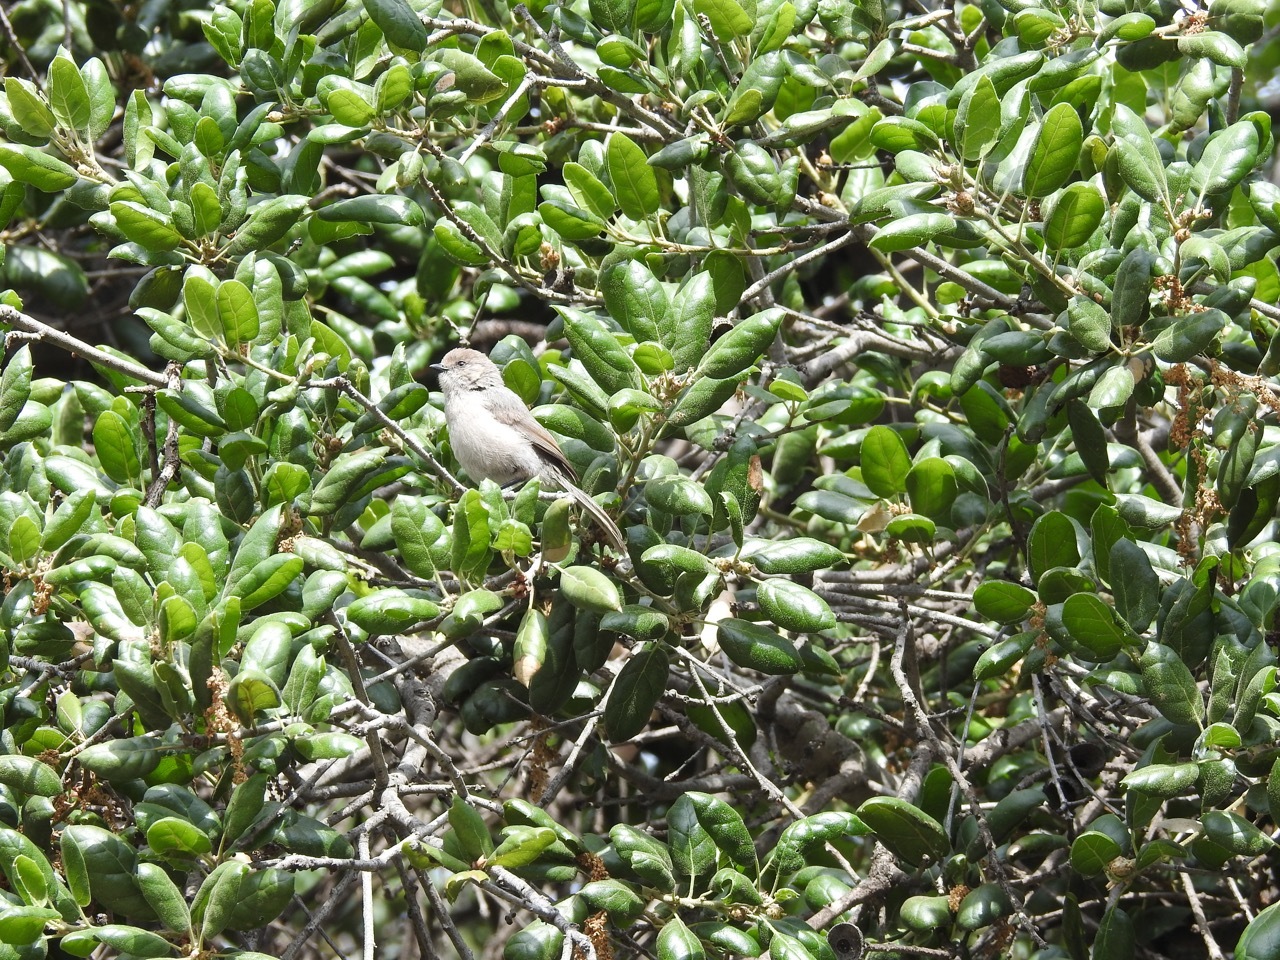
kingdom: Animalia
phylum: Chordata
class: Aves
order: Passeriformes
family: Aegithalidae
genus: Psaltriparus
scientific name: Psaltriparus minimus
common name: American bushtit
